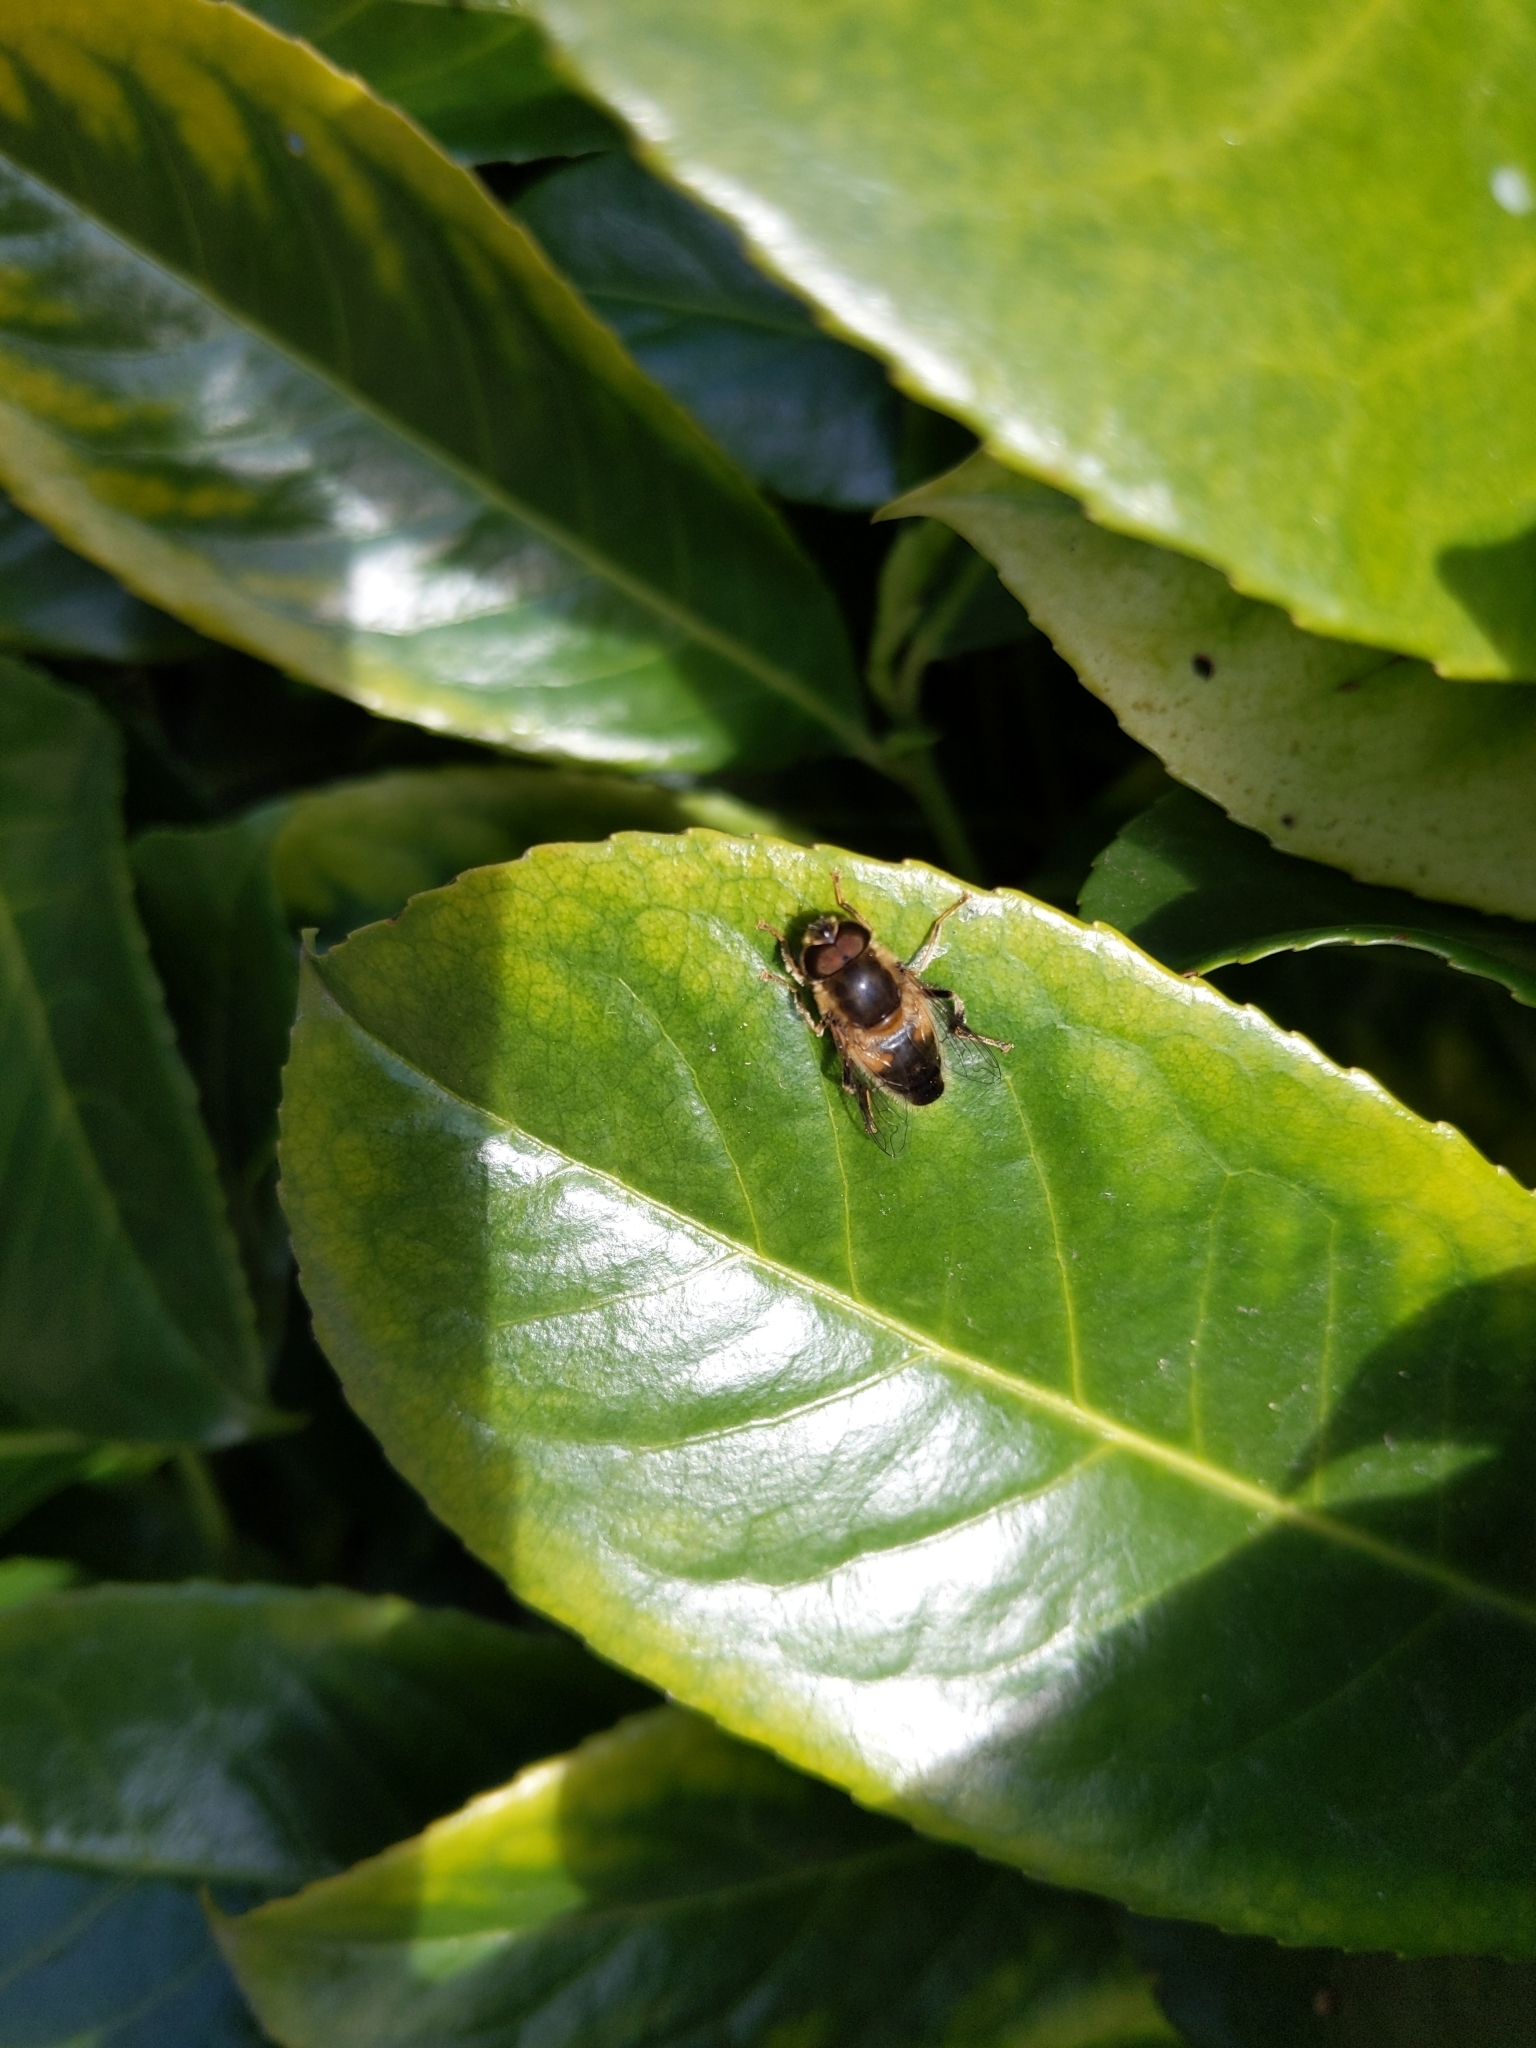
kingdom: Animalia
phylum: Arthropoda
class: Insecta
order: Diptera
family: Syrphidae
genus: Eristalis
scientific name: Eristalis pertinax
